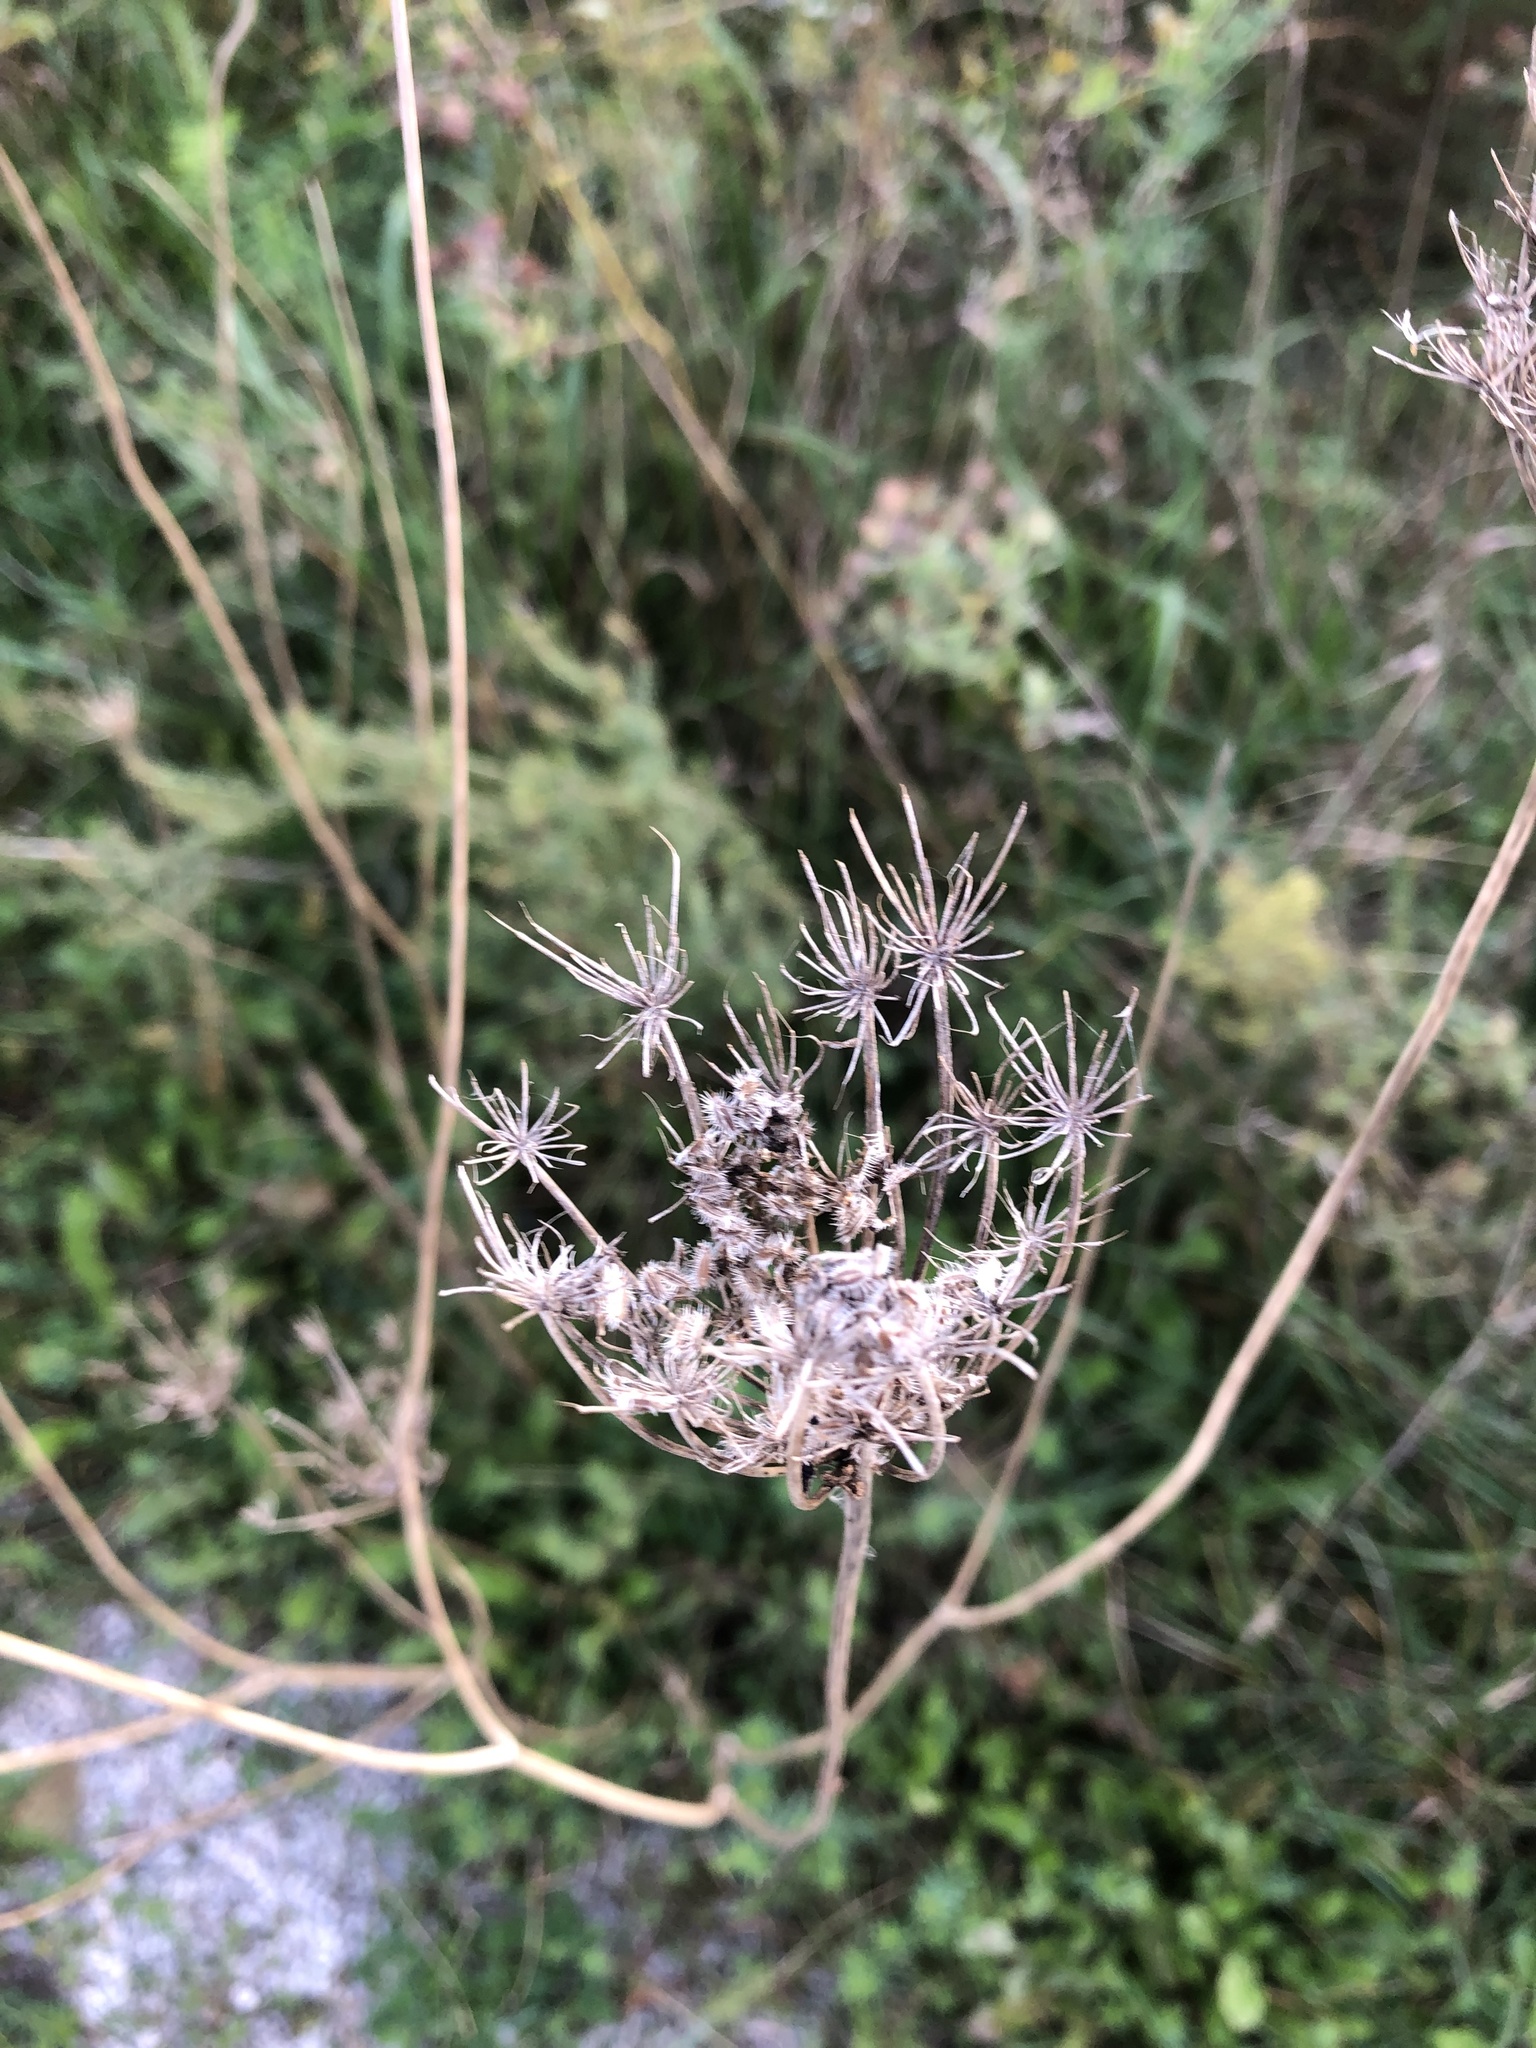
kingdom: Plantae
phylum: Tracheophyta
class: Magnoliopsida
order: Apiales
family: Apiaceae
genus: Daucus
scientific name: Daucus carota
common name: Wild carrot
